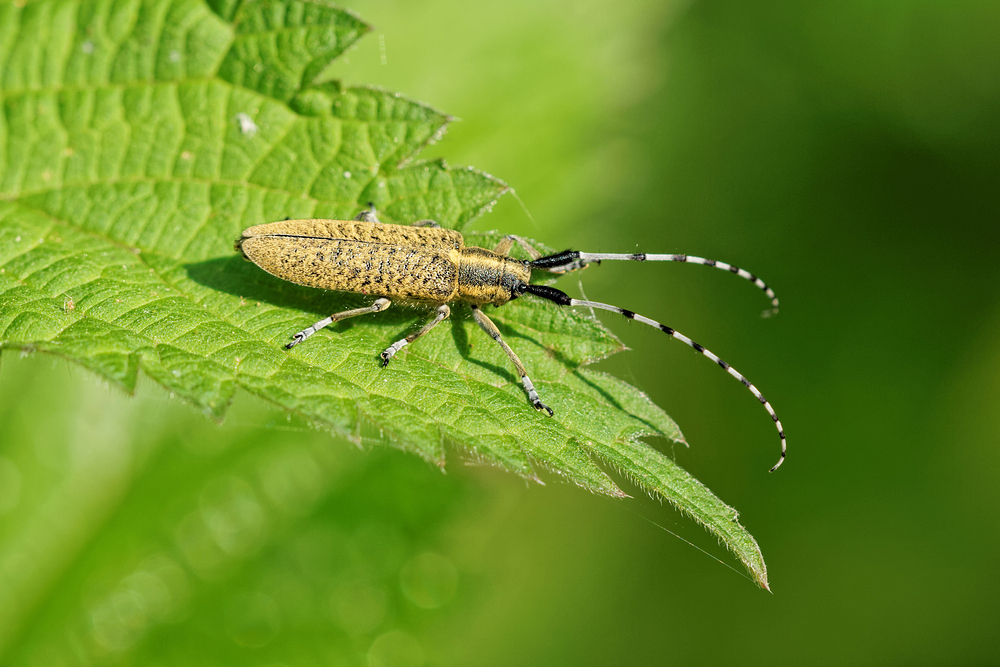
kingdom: Animalia
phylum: Arthropoda
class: Insecta
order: Coleoptera
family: Cerambycidae
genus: Agapanthia
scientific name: Agapanthia villosoviridescens
